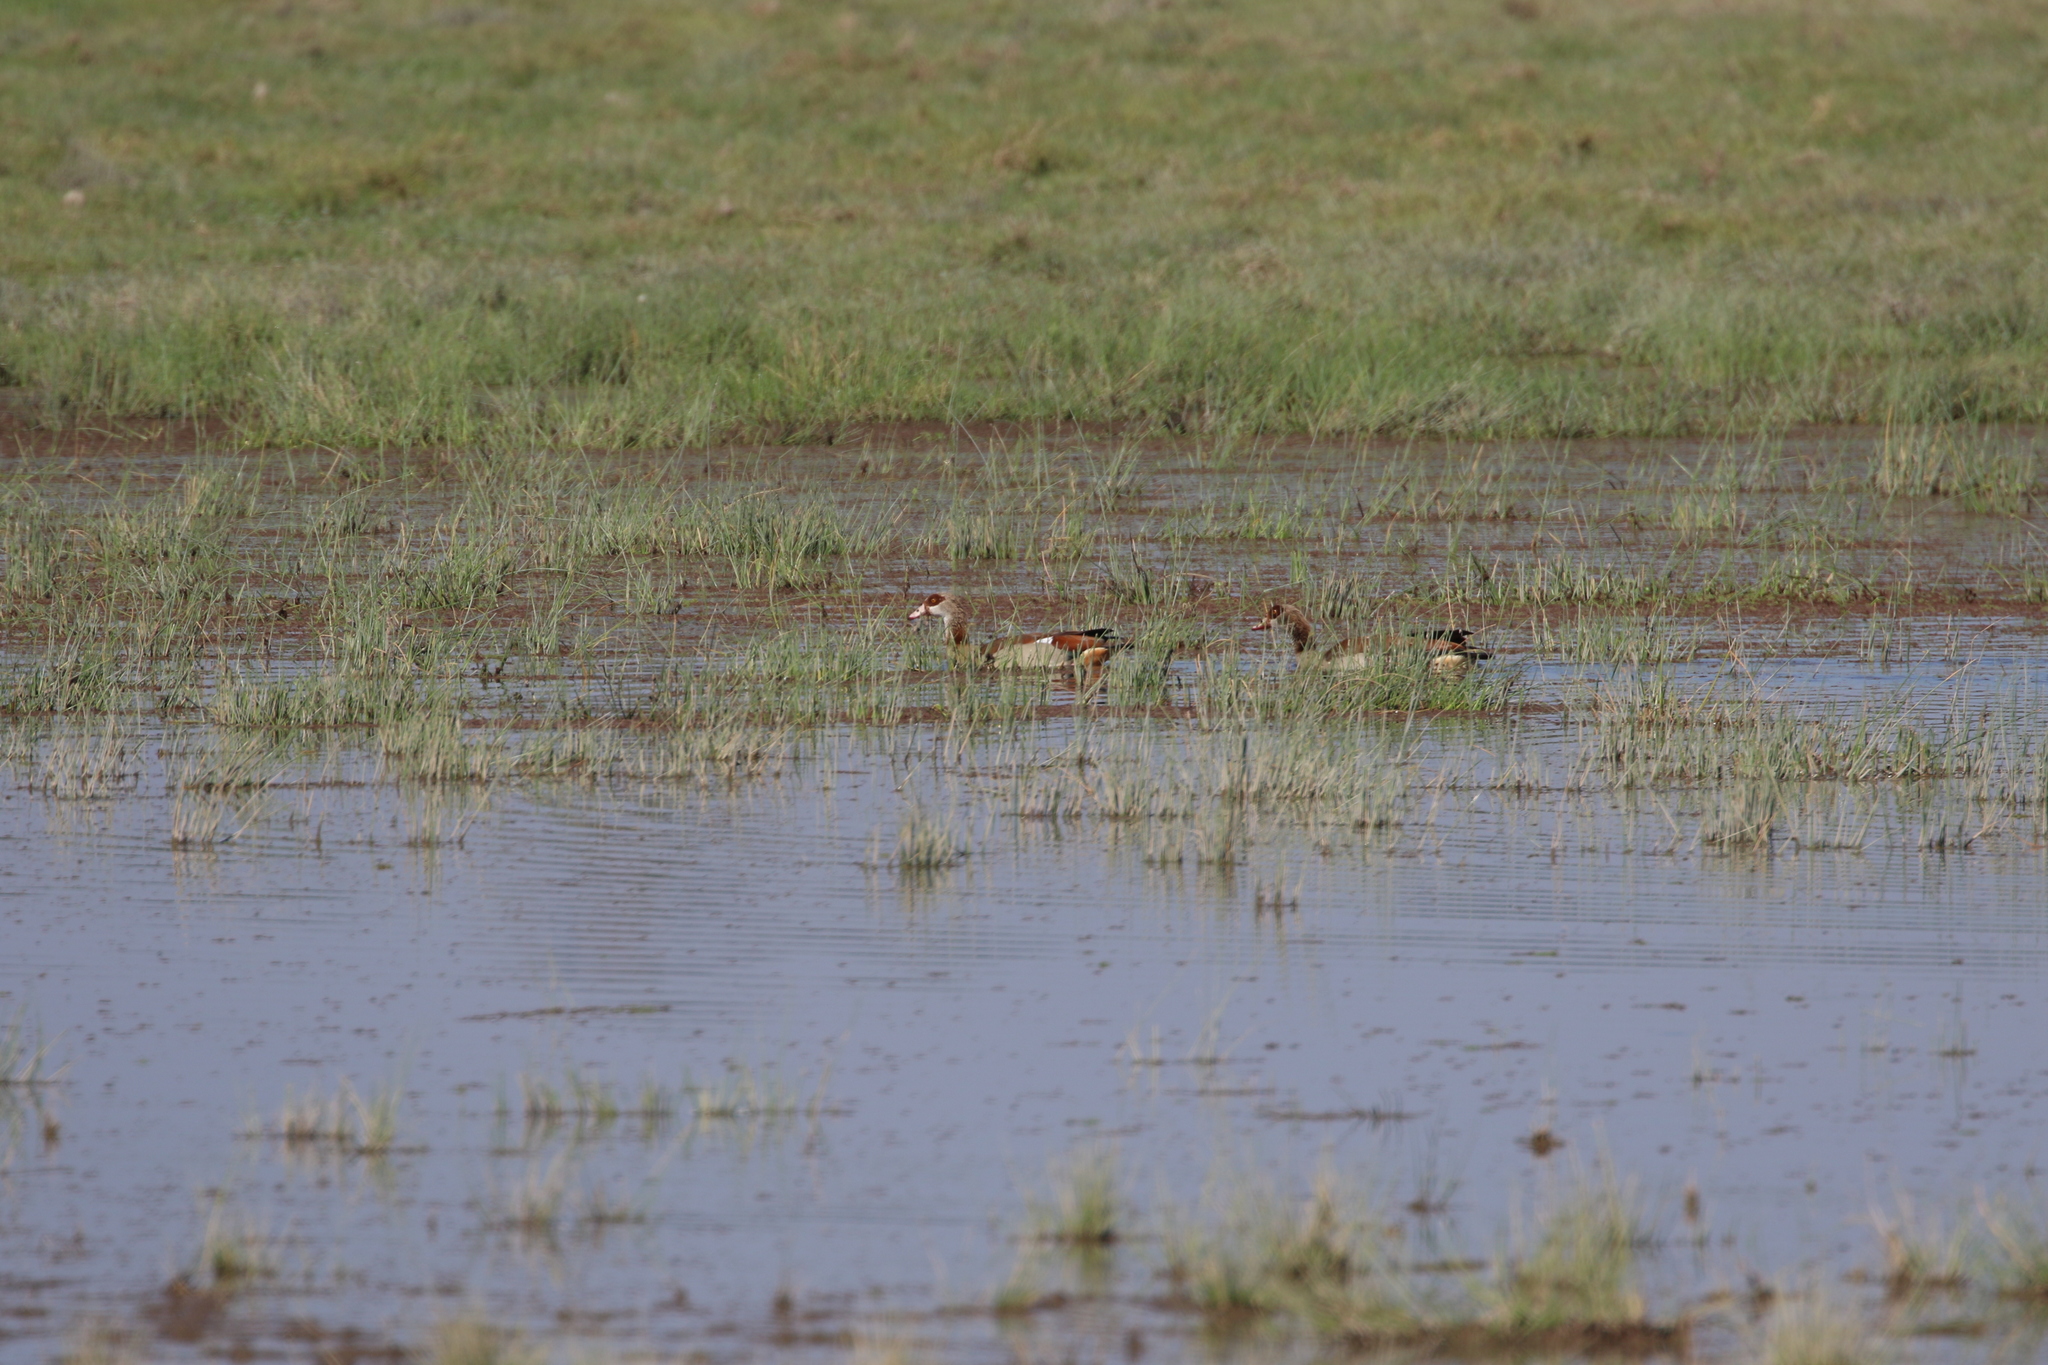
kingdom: Animalia
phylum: Chordata
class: Aves
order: Anseriformes
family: Anatidae
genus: Alopochen
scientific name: Alopochen aegyptiaca
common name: Egyptian goose
